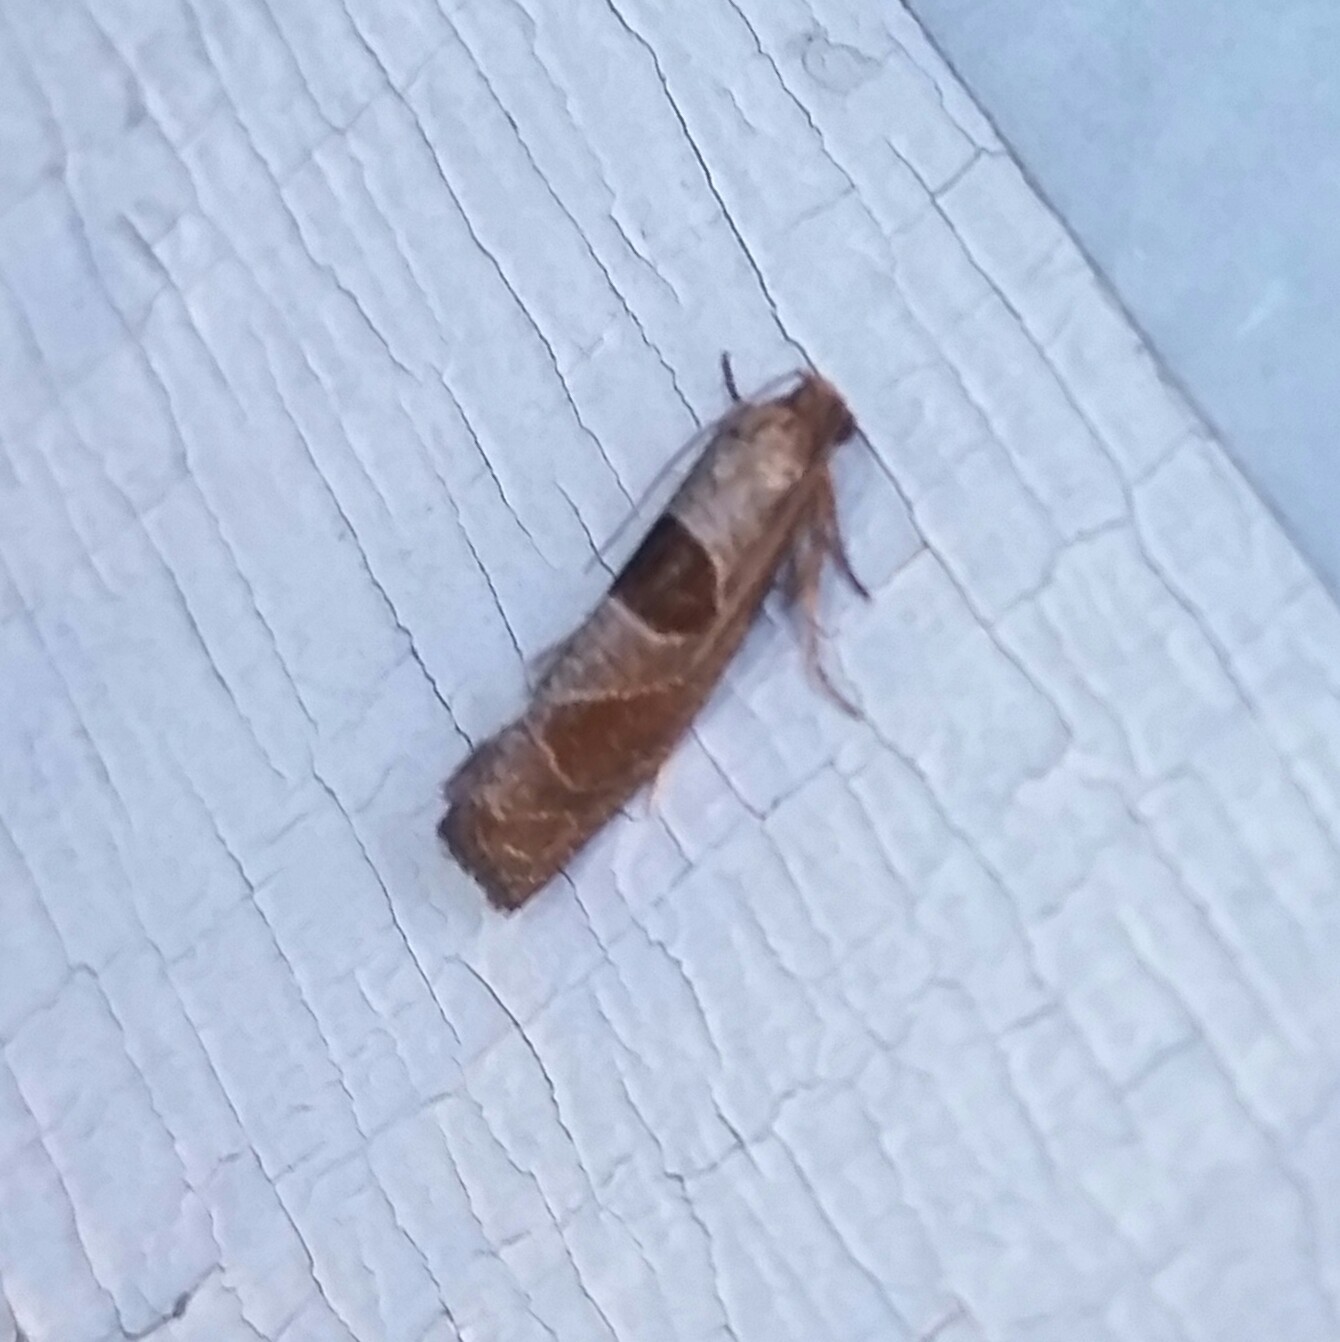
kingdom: Animalia
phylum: Arthropoda
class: Insecta
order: Lepidoptera
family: Tortricidae
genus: Pelochrista
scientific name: Pelochrista dorsisignatana
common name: Triangle-backed pelochrista moth
